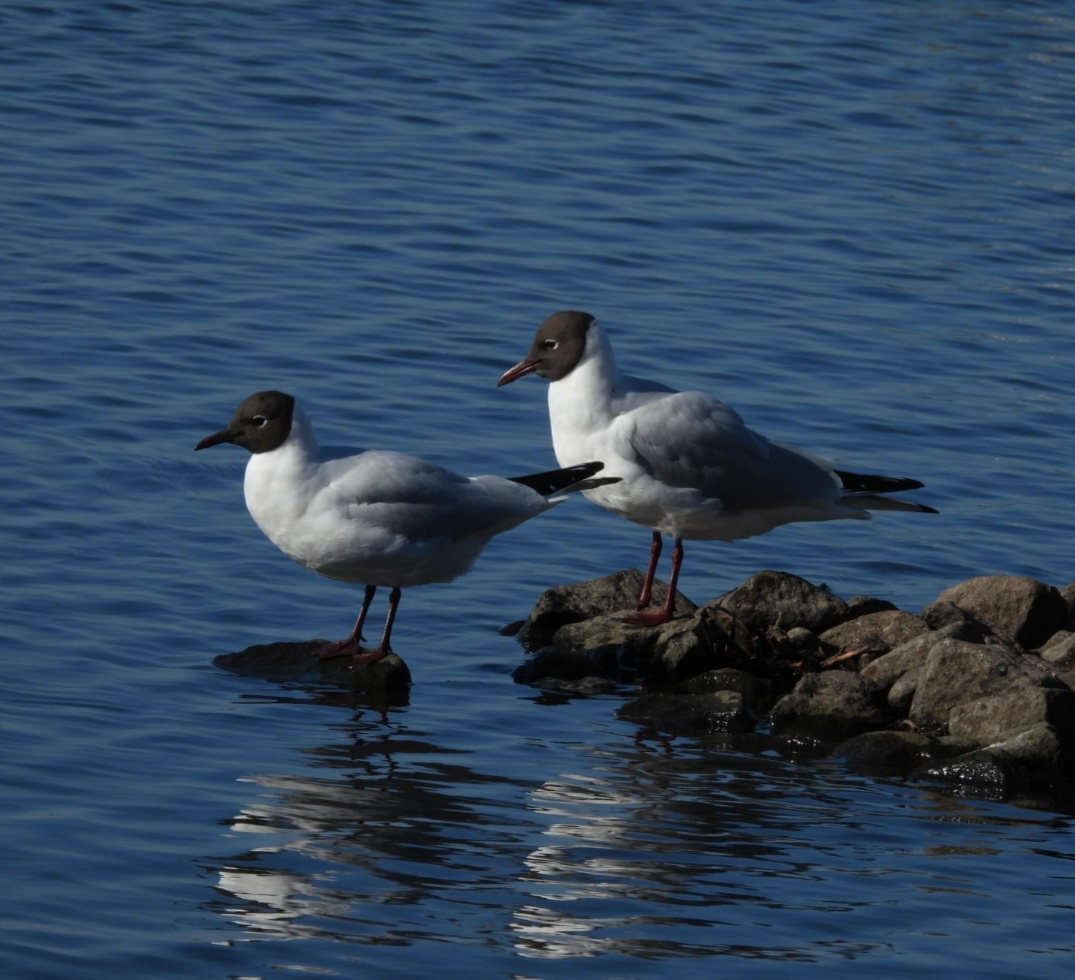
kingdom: Animalia
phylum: Chordata
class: Aves
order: Charadriiformes
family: Laridae
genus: Chroicocephalus
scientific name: Chroicocephalus ridibundus
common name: Black-headed gull
